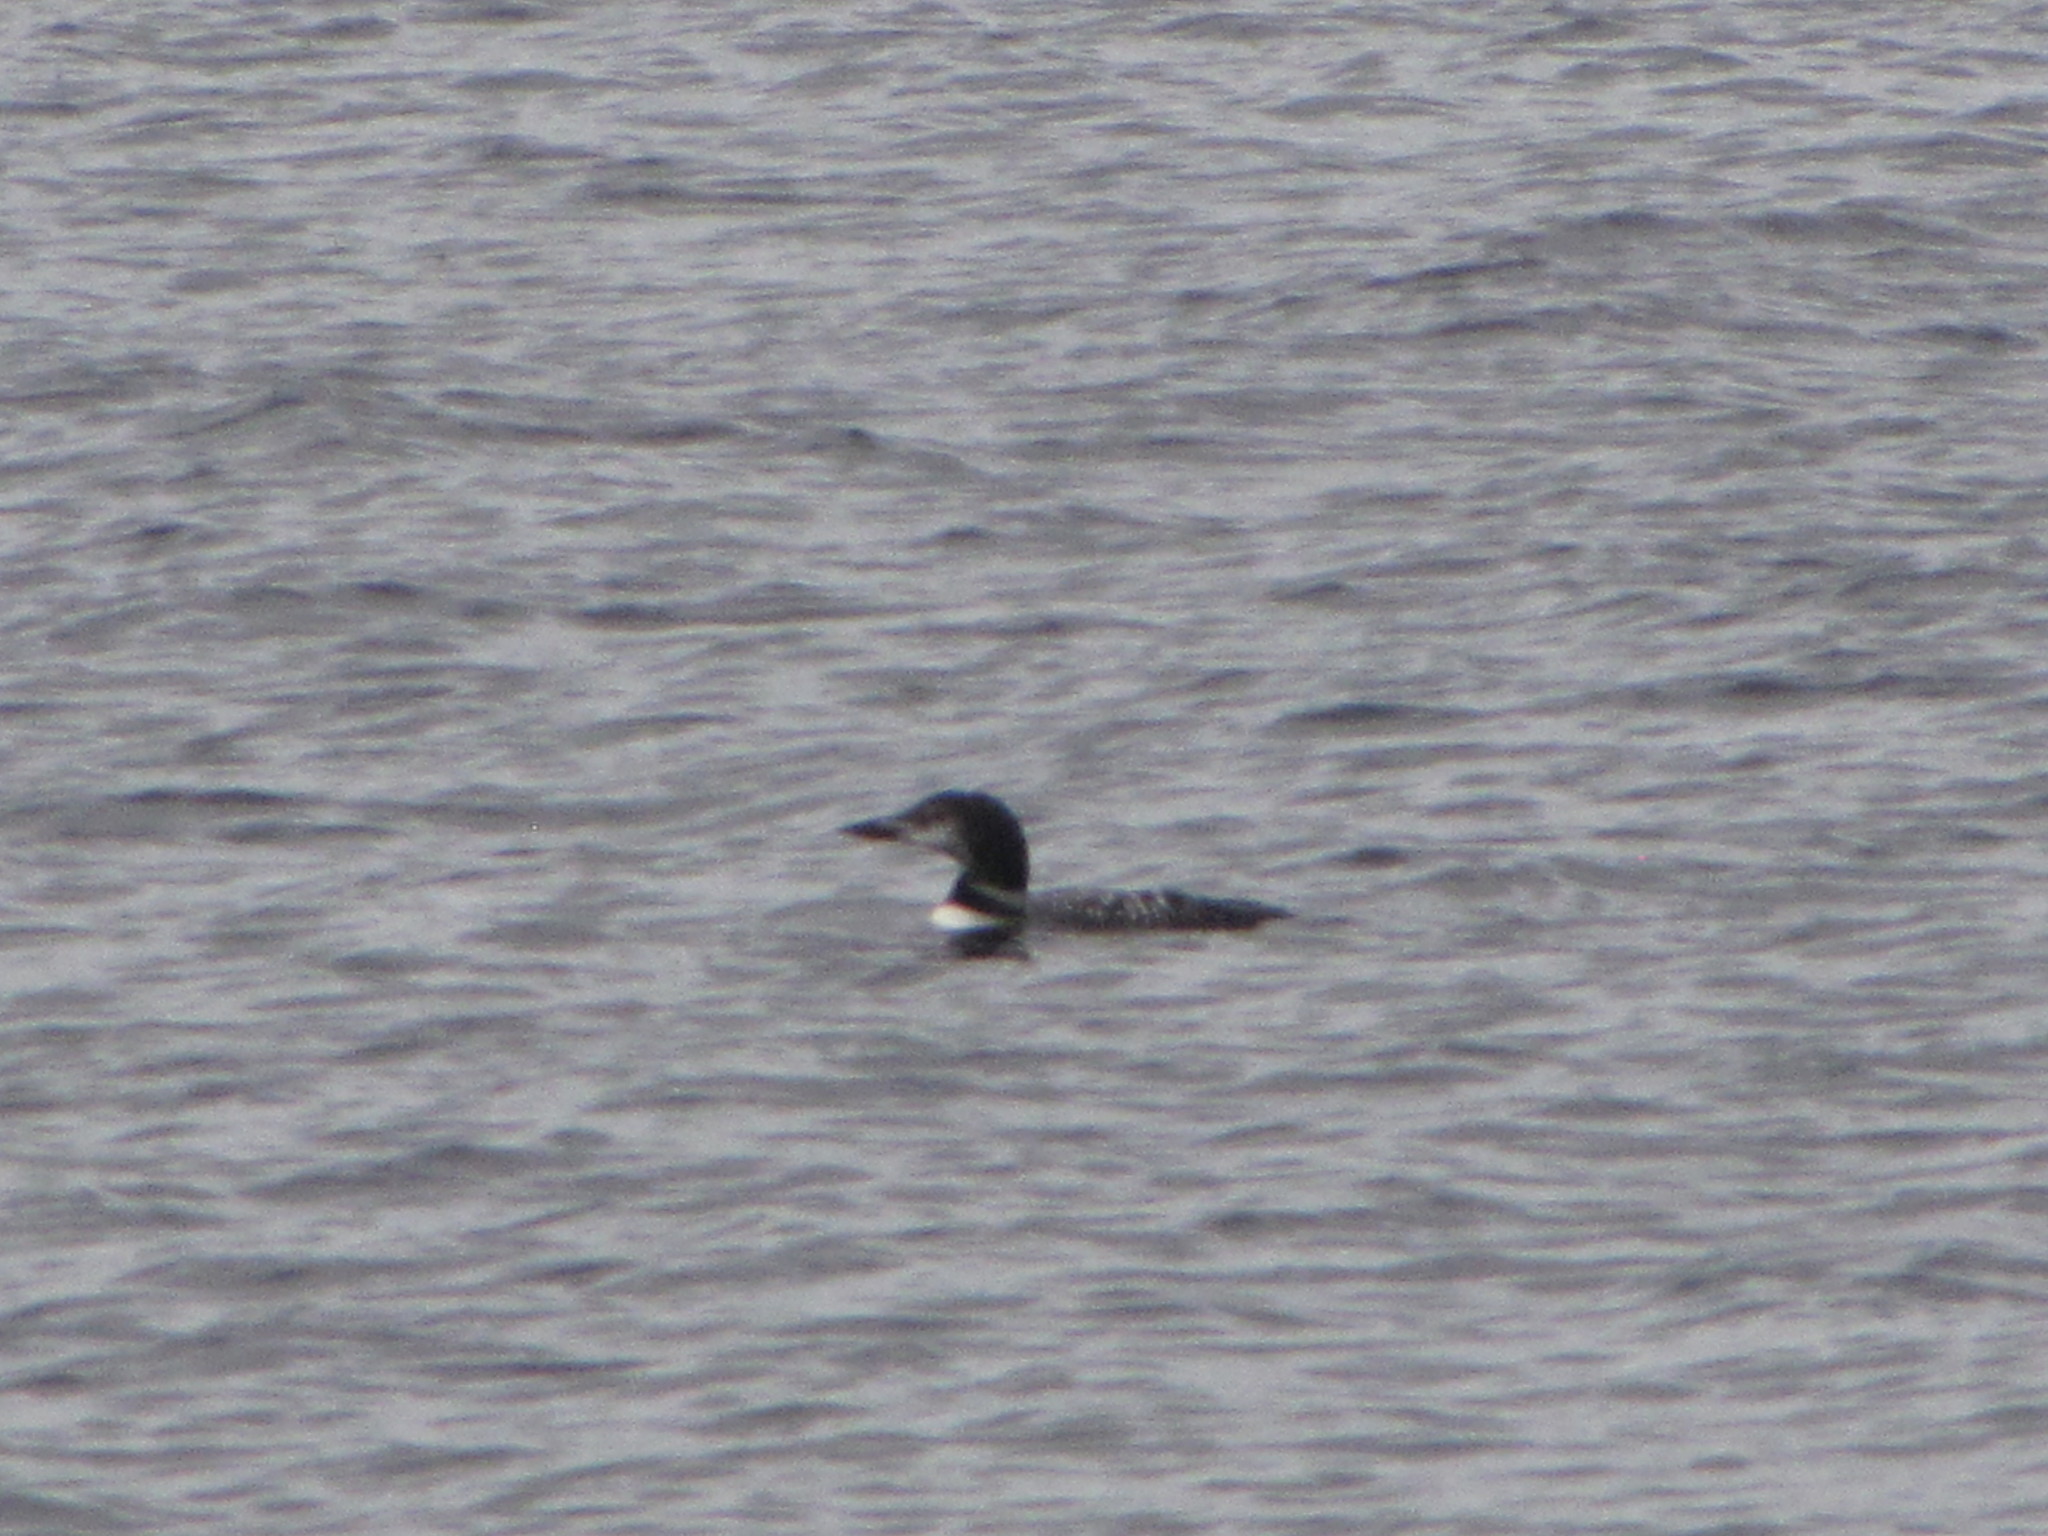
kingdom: Animalia
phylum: Chordata
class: Aves
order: Gaviiformes
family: Gaviidae
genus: Gavia
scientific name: Gavia immer
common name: Common loon
